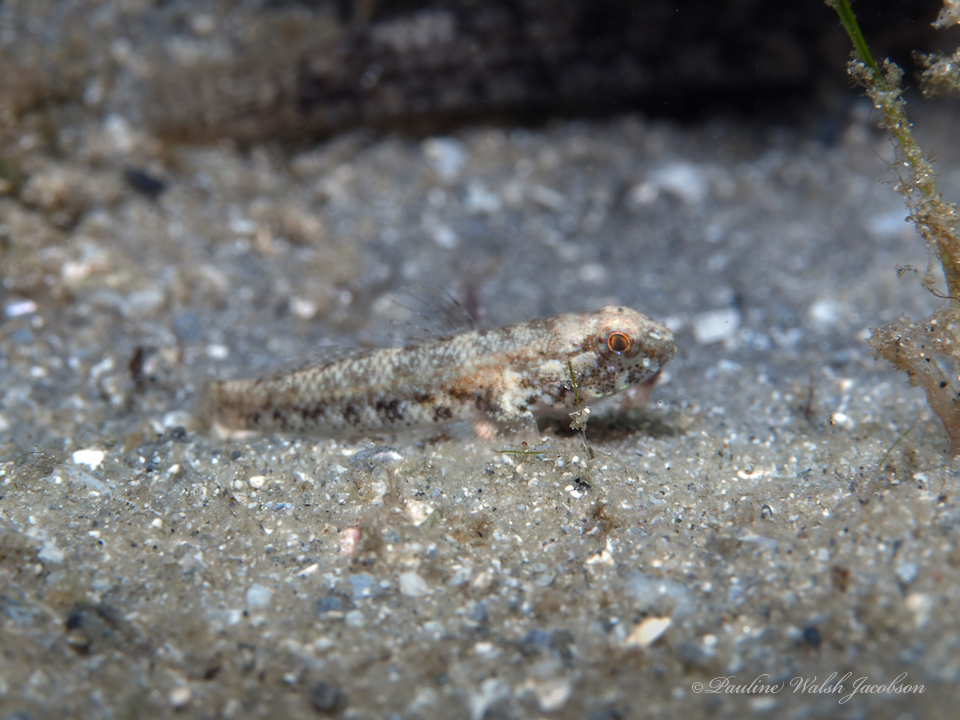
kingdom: Animalia
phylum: Chordata
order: Perciformes
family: Gobiidae
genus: Bathygobius
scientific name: Bathygobius mystacium
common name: Island frillfin
